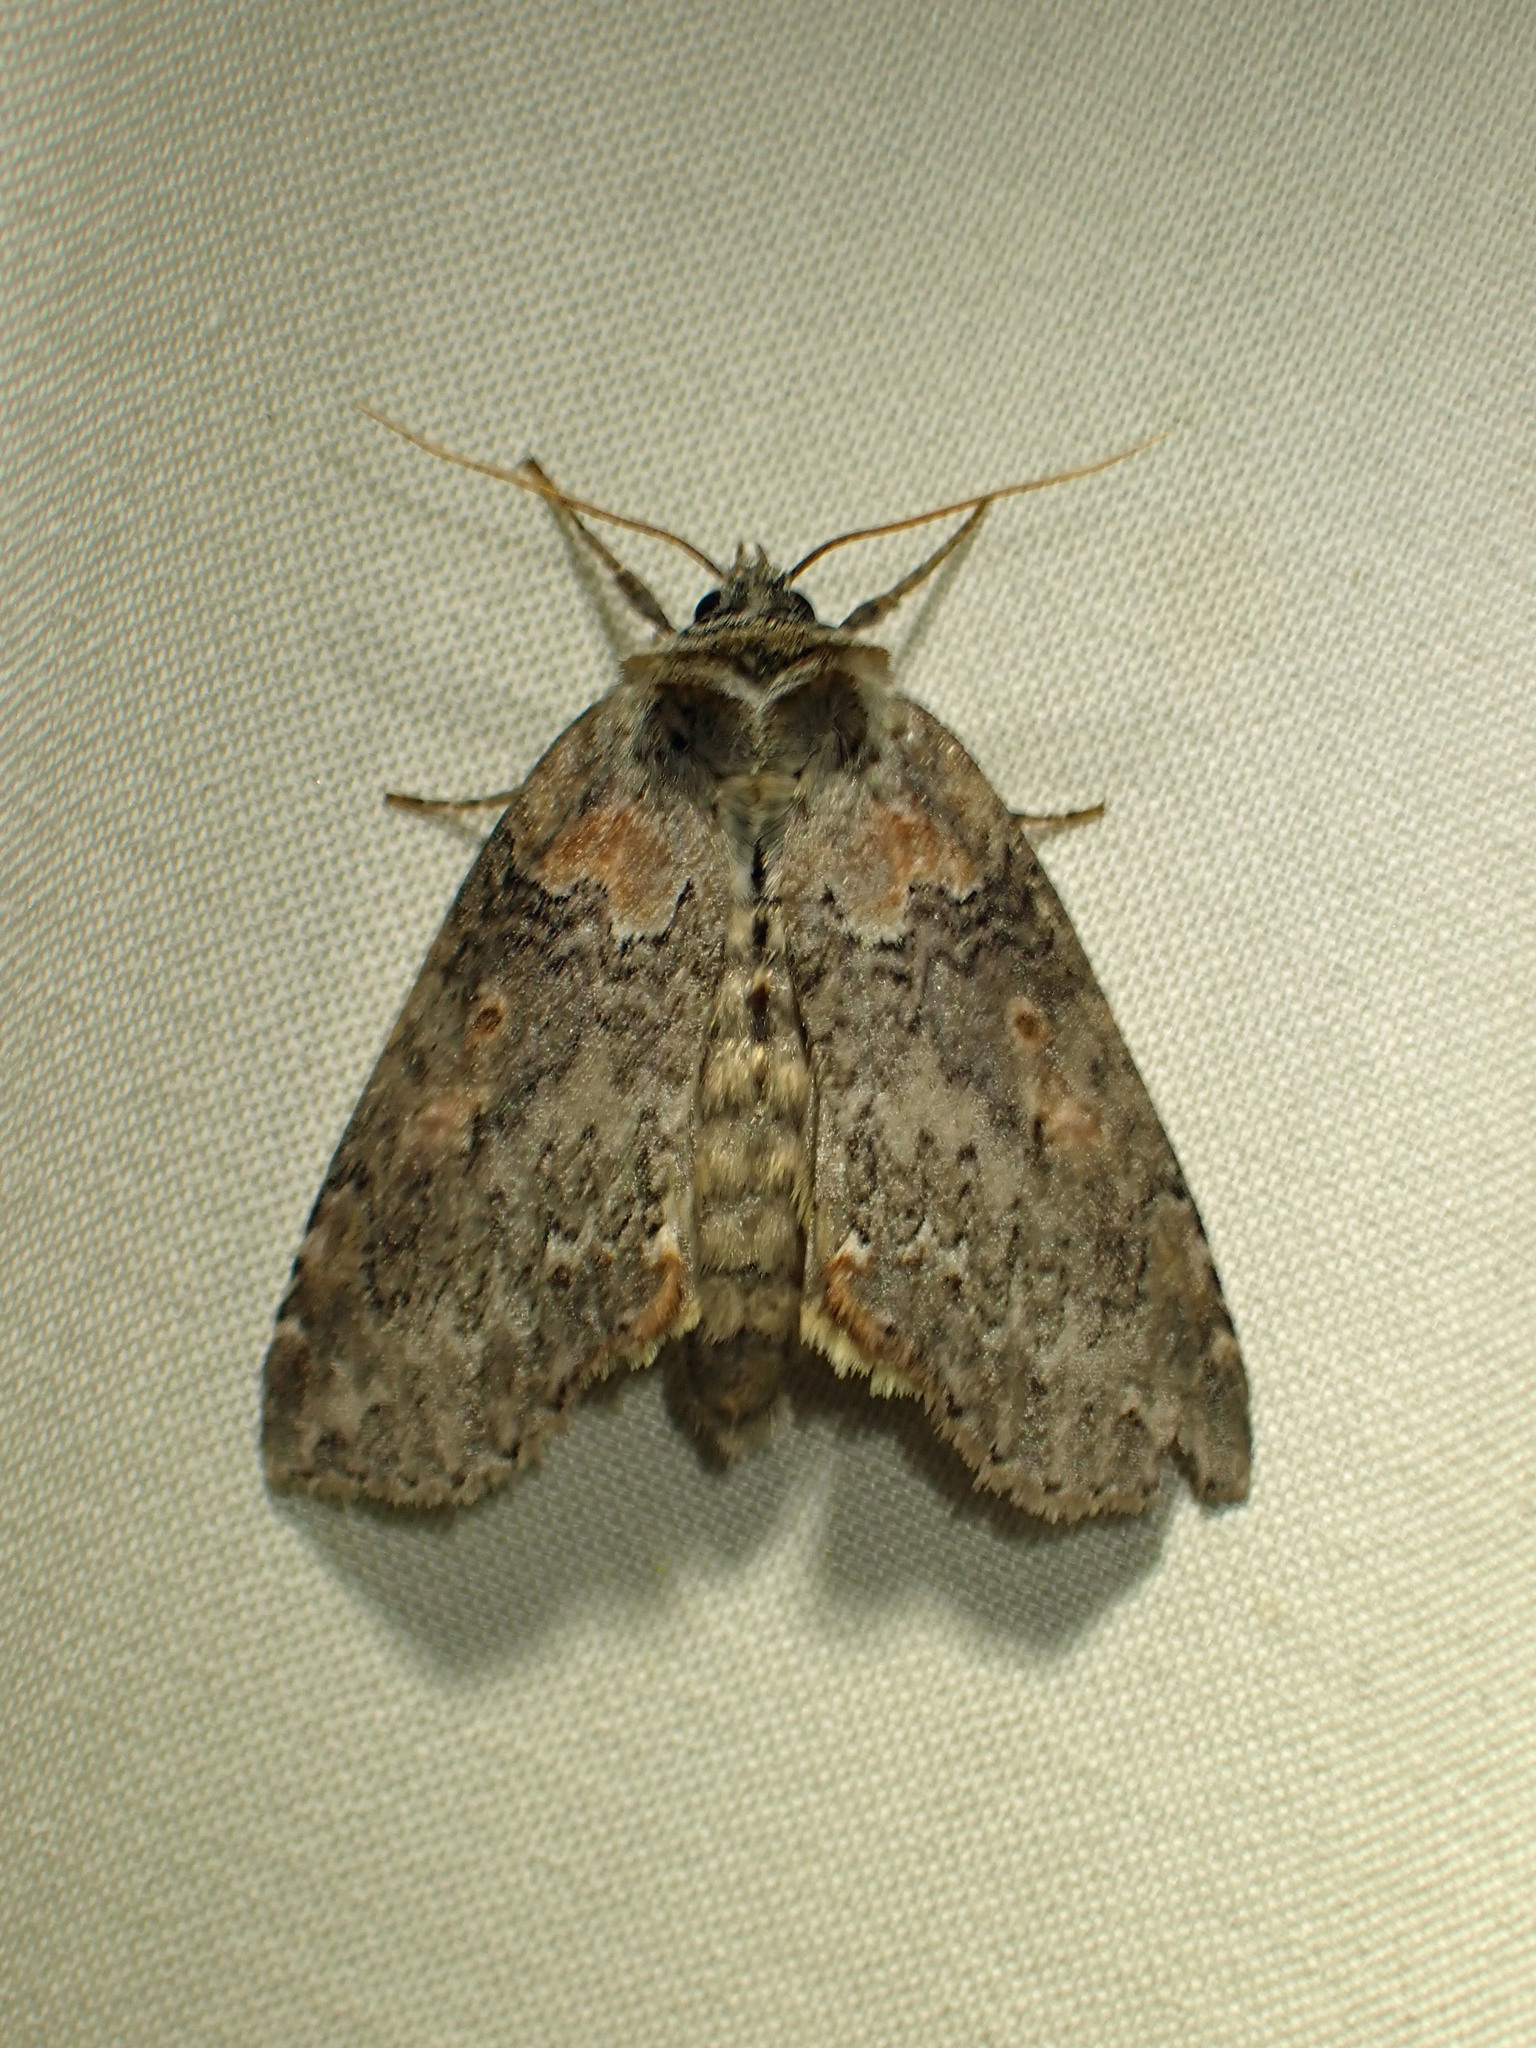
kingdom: Animalia
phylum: Arthropoda
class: Insecta
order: Lepidoptera
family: Drepanidae
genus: Pseudothyatira
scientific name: Pseudothyatira cymatophoroides
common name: Tufted thyatirid moth
